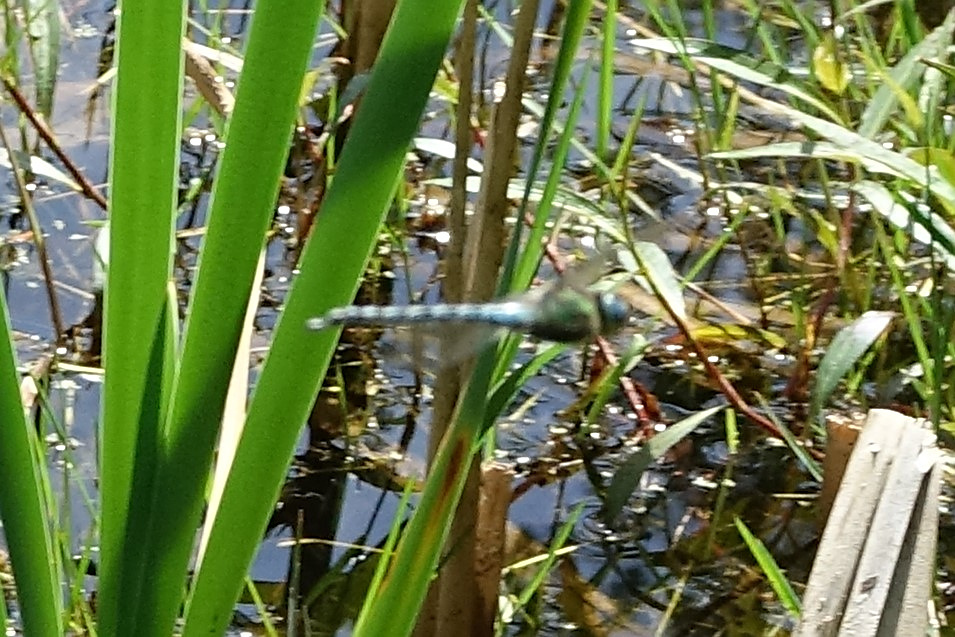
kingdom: Animalia
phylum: Arthropoda
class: Insecta
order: Odonata
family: Aeshnidae
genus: Brachytron
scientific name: Brachytron pratense
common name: Hairy hawker
